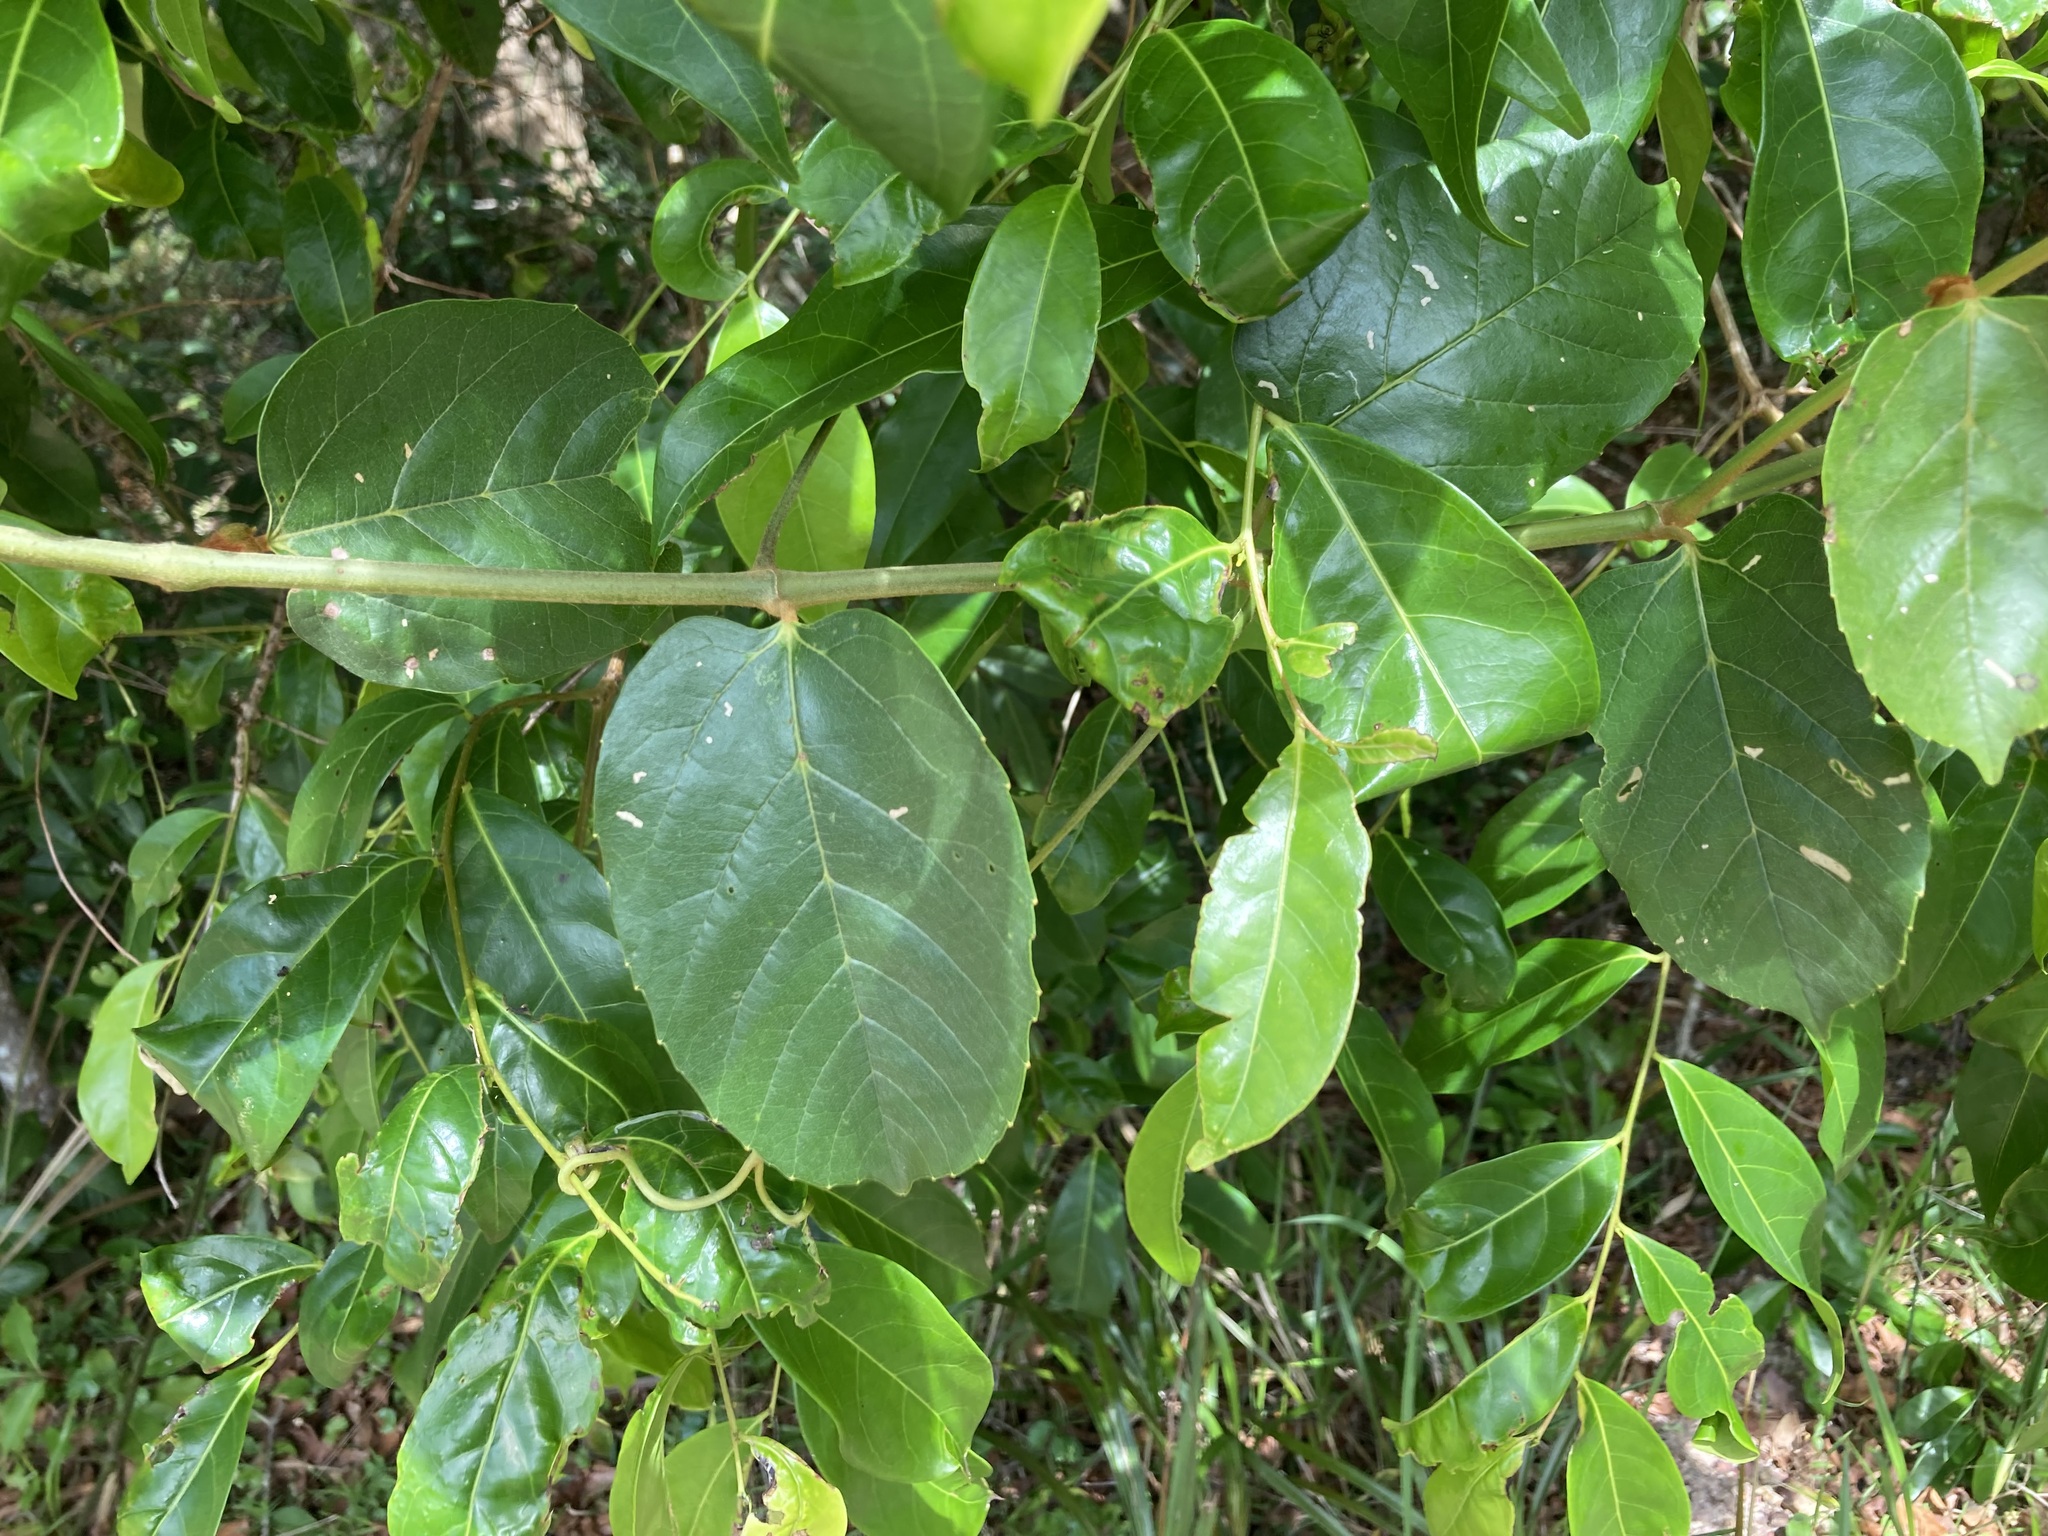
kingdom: Plantae
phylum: Tracheophyta
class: Magnoliopsida
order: Vitales
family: Vitaceae
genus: Cissus
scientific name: Cissus antarctica
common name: Kangaroo vine
